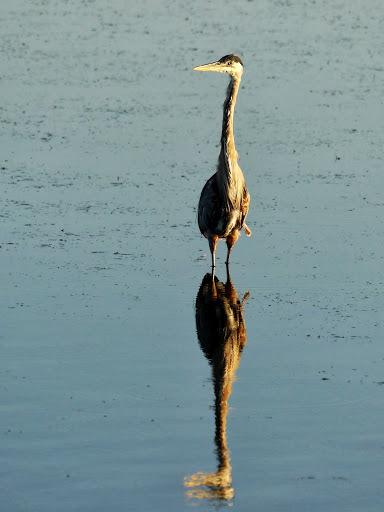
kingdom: Animalia
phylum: Chordata
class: Aves
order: Pelecaniformes
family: Ardeidae
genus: Ardea
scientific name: Ardea herodias
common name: Great blue heron
